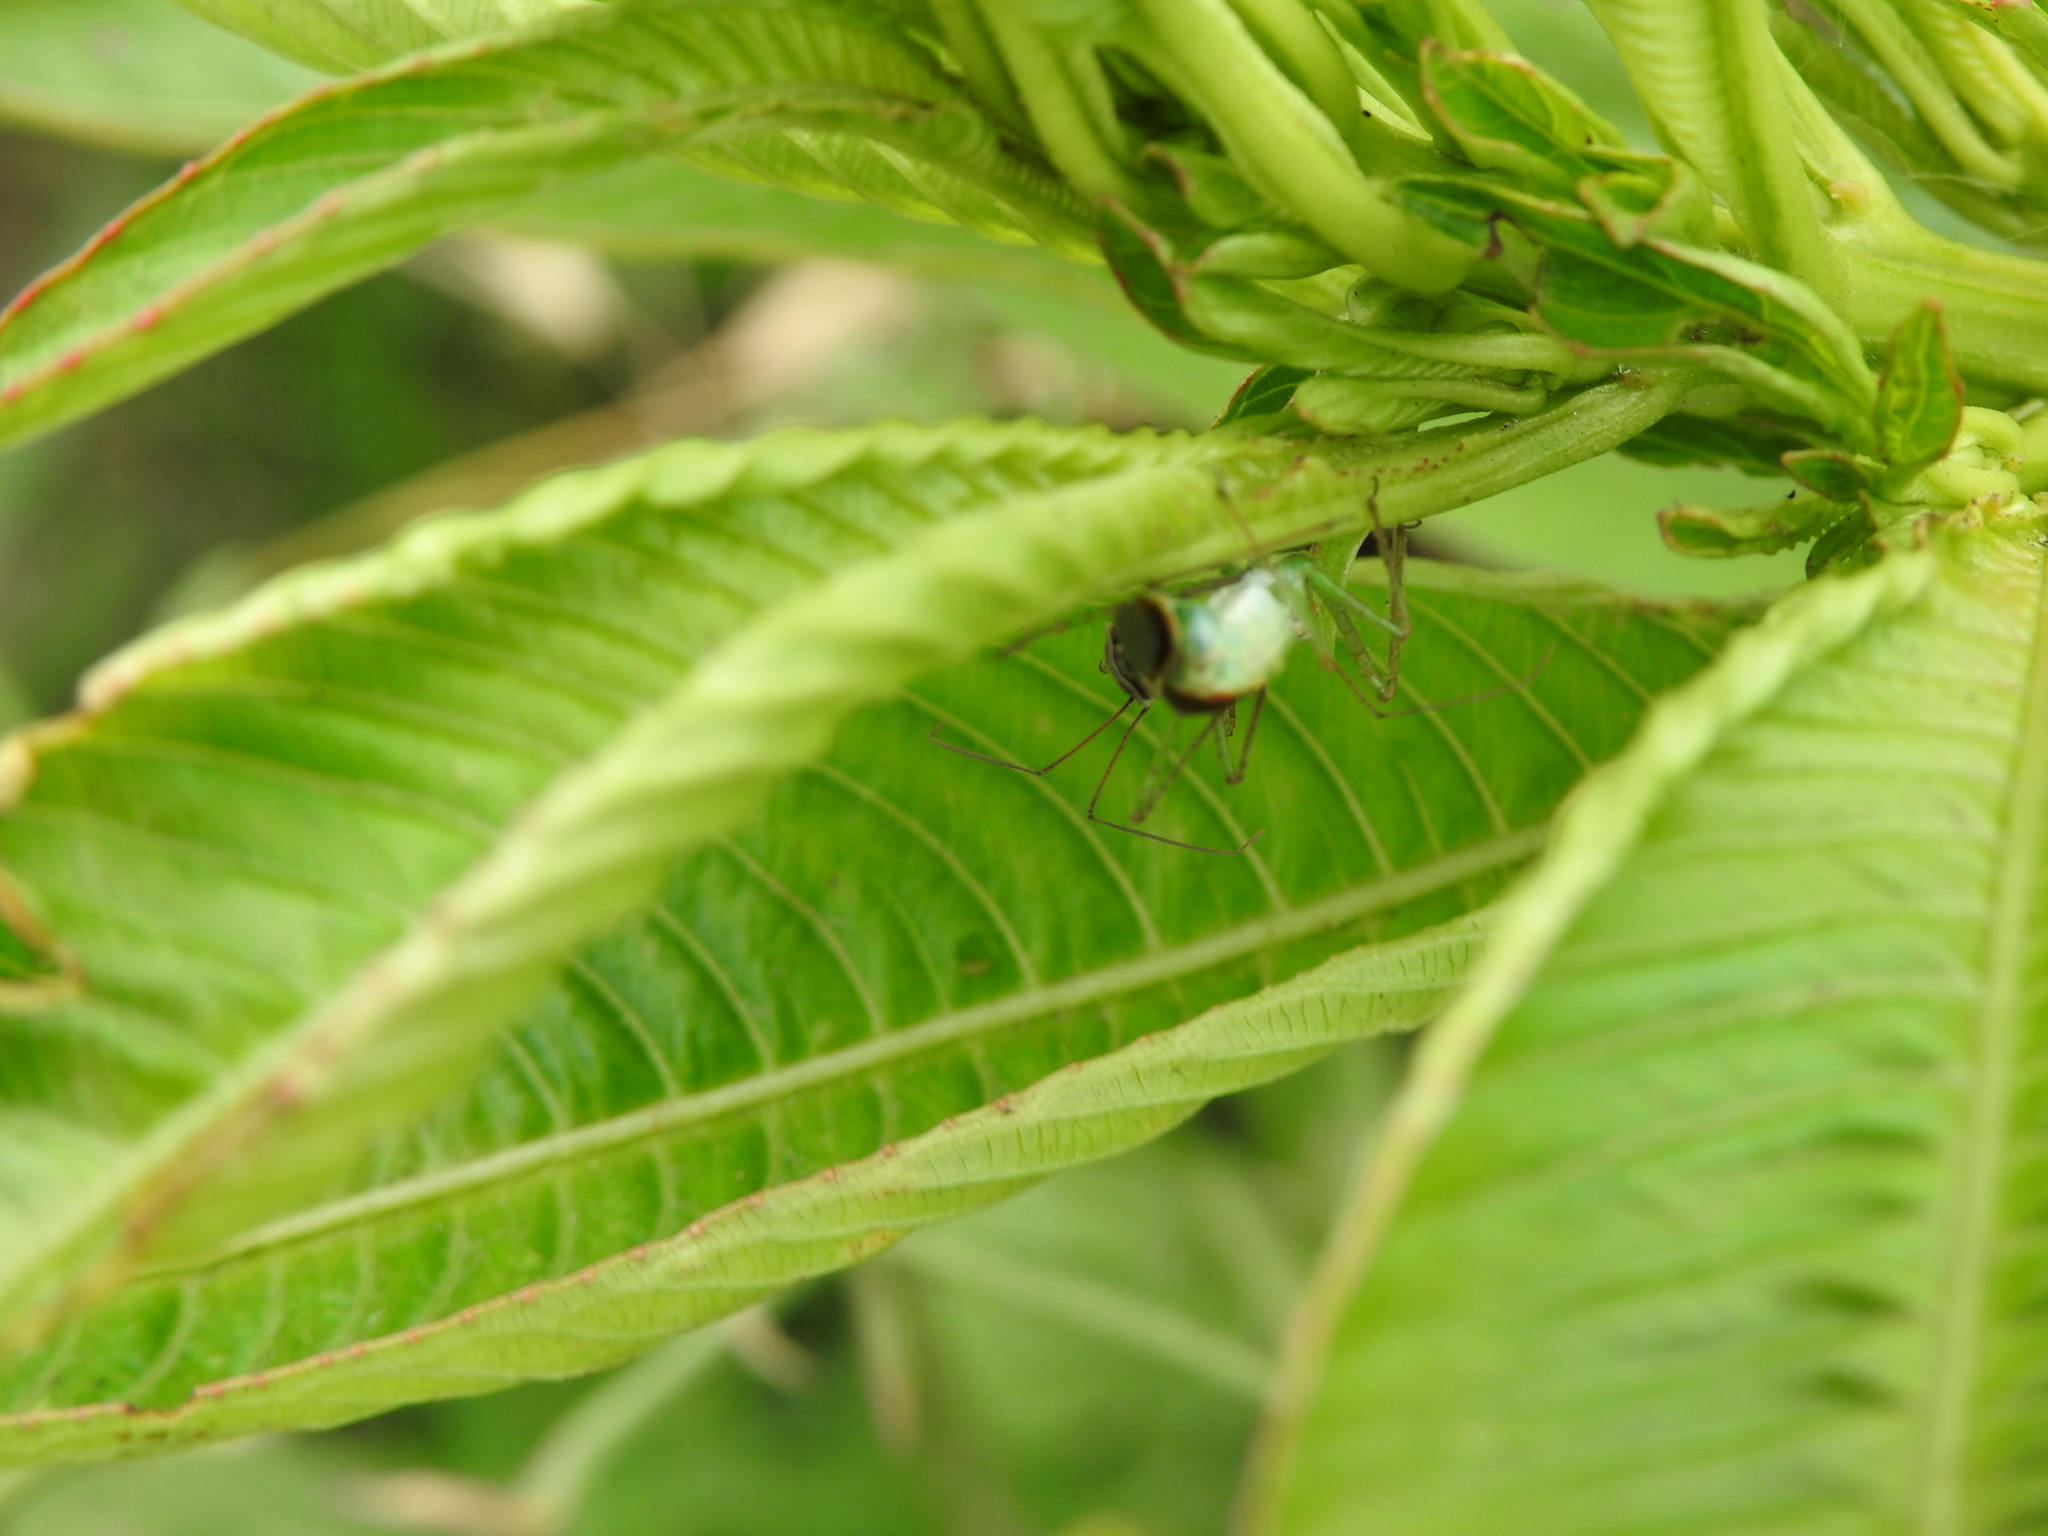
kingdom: Animalia
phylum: Arthropoda
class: Insecta
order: Hemiptera
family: Reduviidae
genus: Zelus
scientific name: Zelus renardii
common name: Assassin bug
